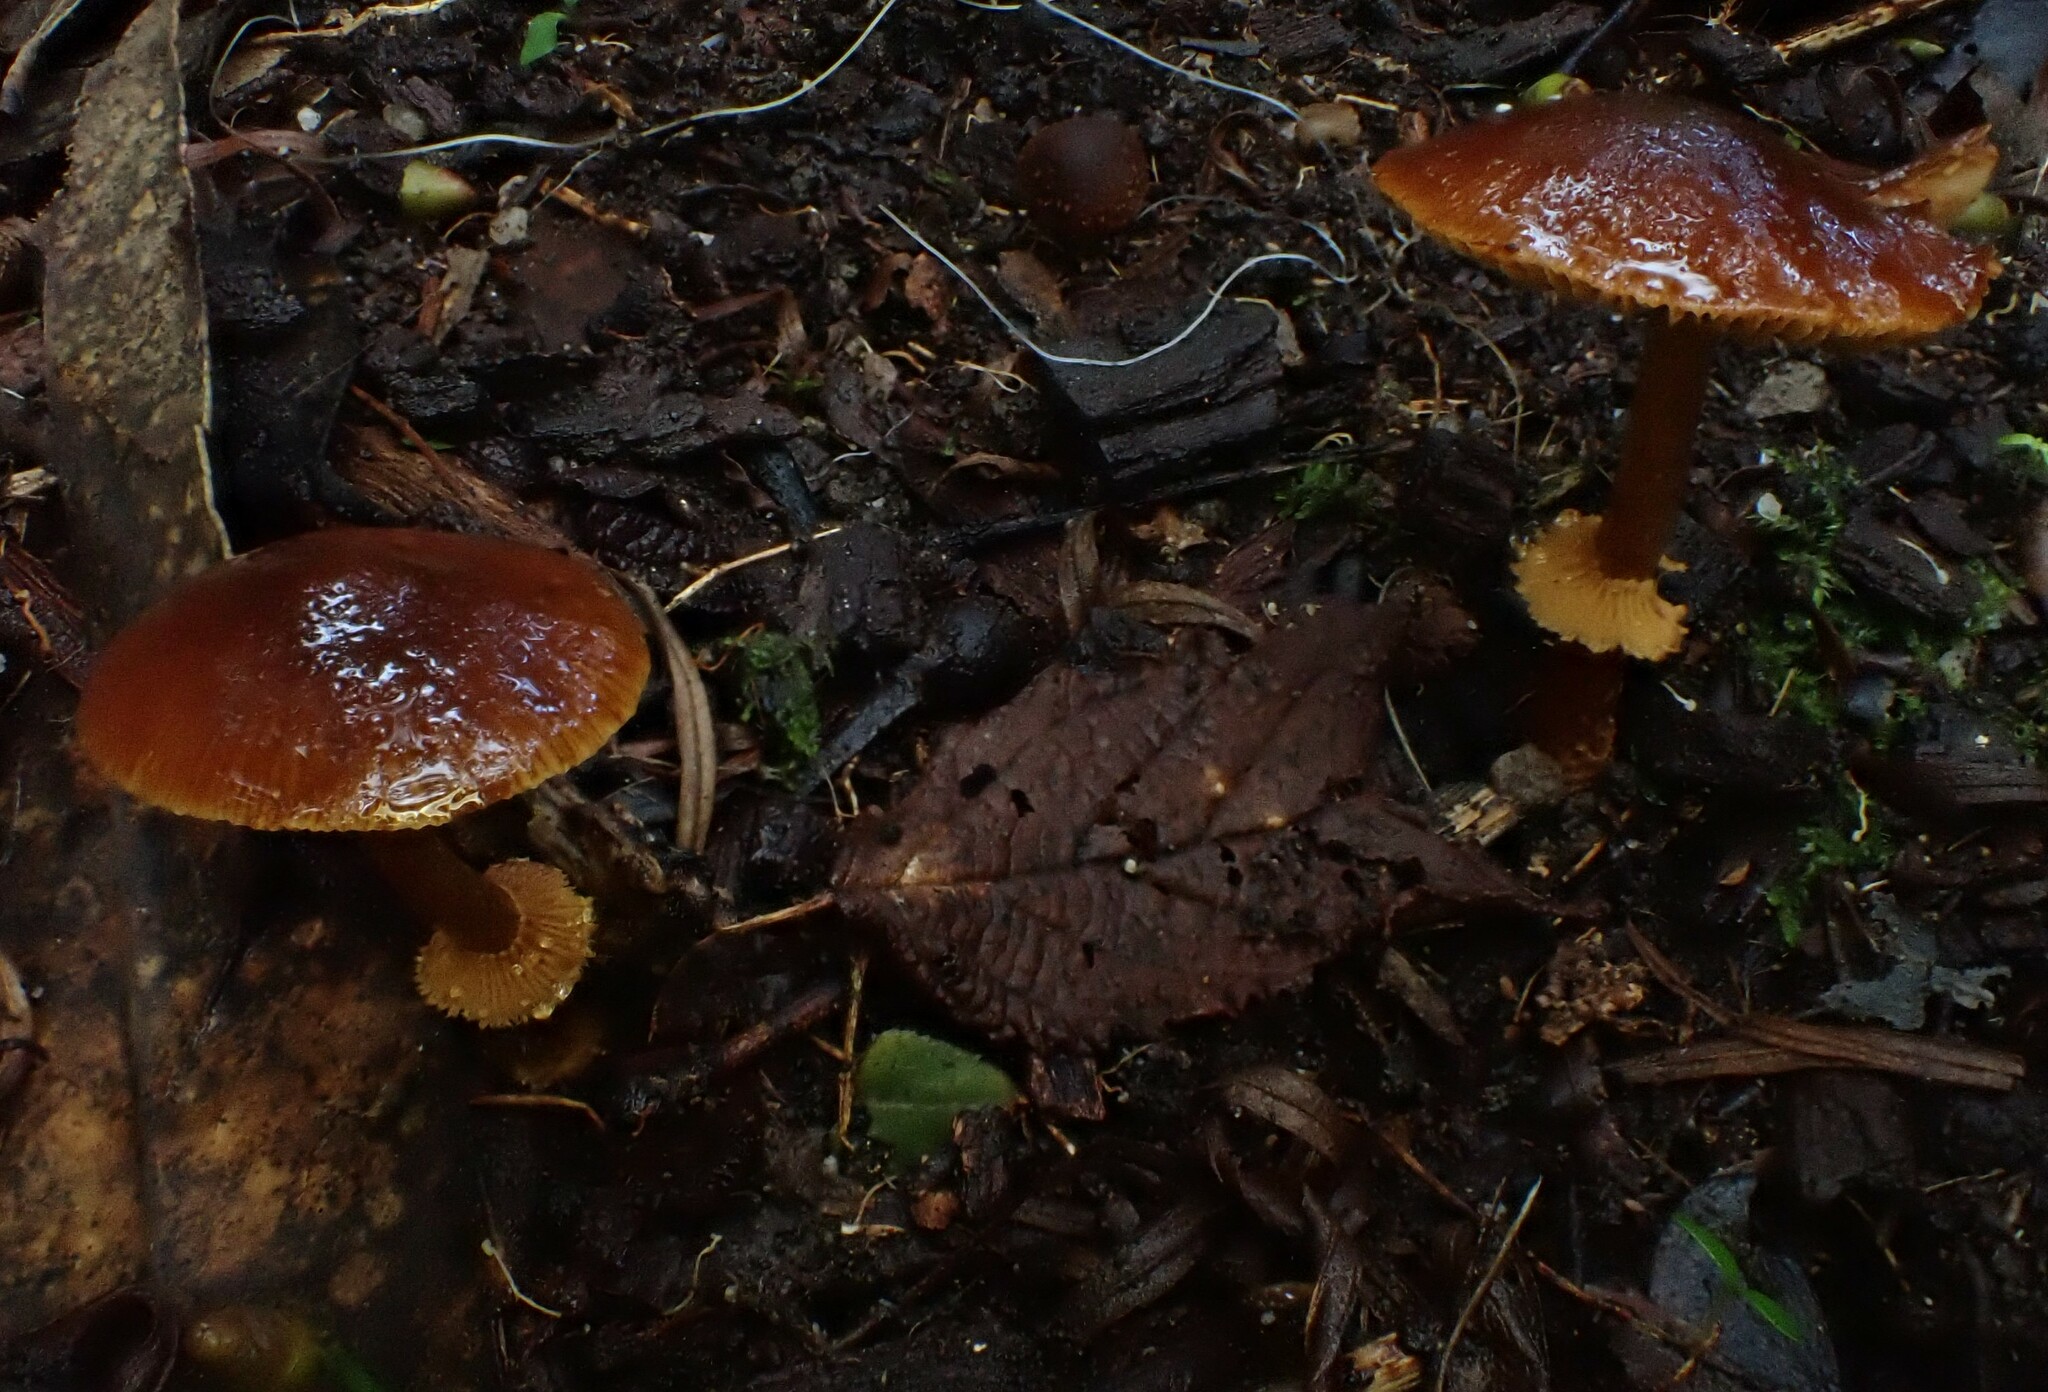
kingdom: Fungi
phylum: Basidiomycota
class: Agaricomycetes
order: Agaricales
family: Bolbitiaceae
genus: Descolea
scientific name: Descolea recedens
